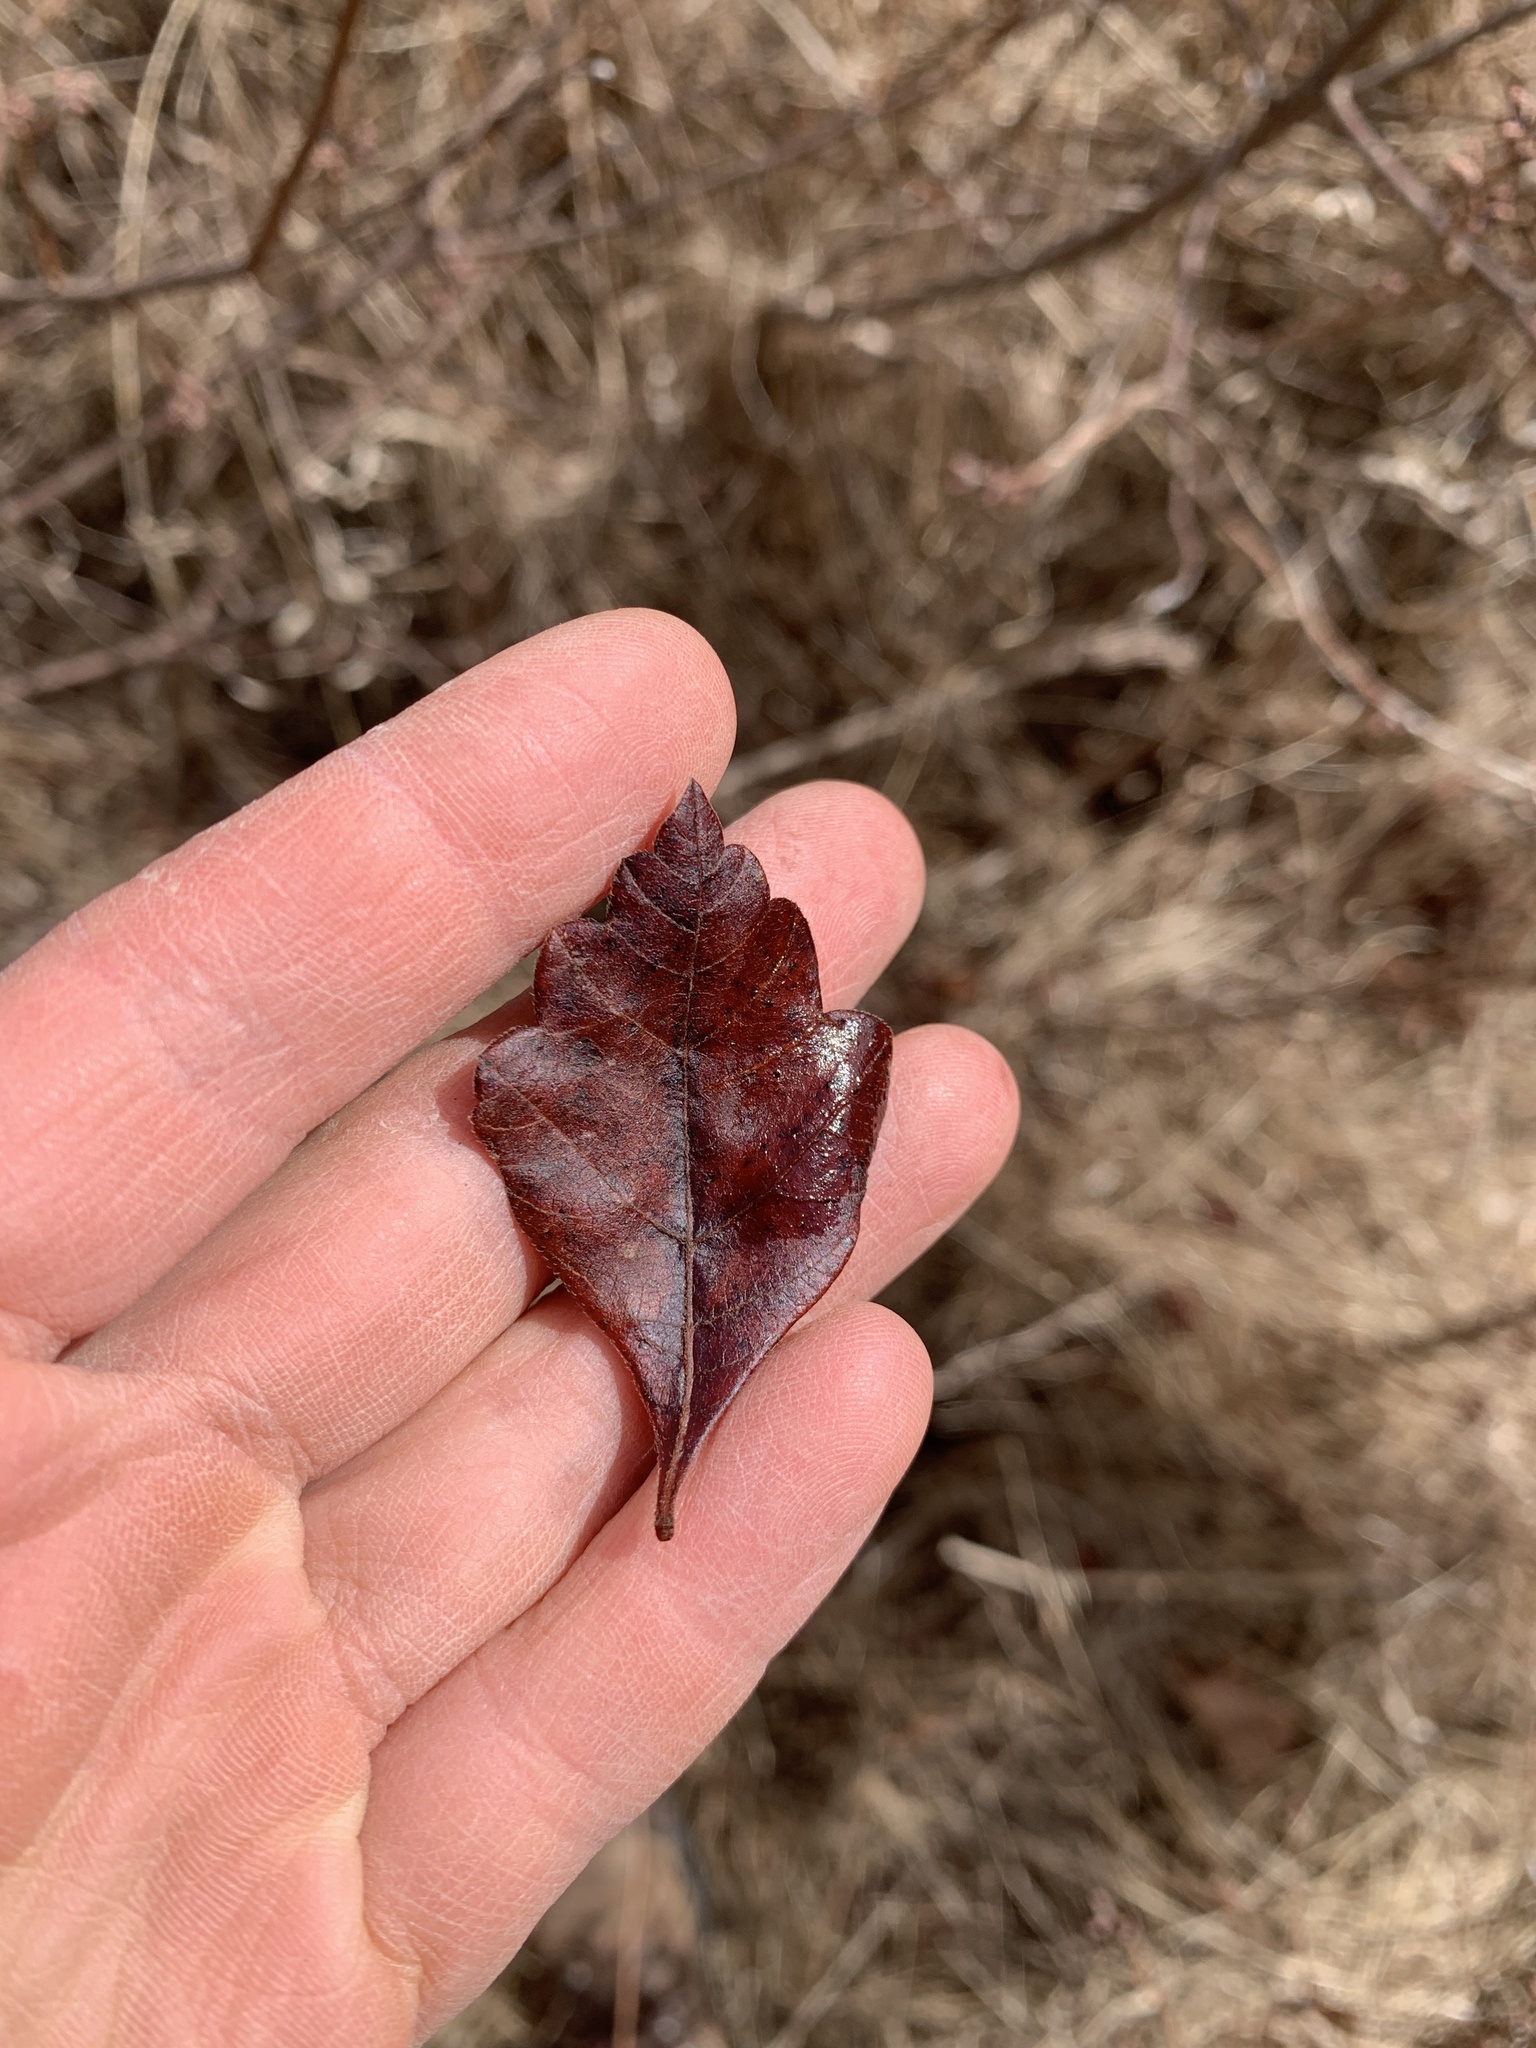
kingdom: Plantae
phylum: Tracheophyta
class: Magnoliopsida
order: Sapindales
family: Anacardiaceae
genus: Rhus
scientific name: Rhus aromatica
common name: Aromatic sumac
